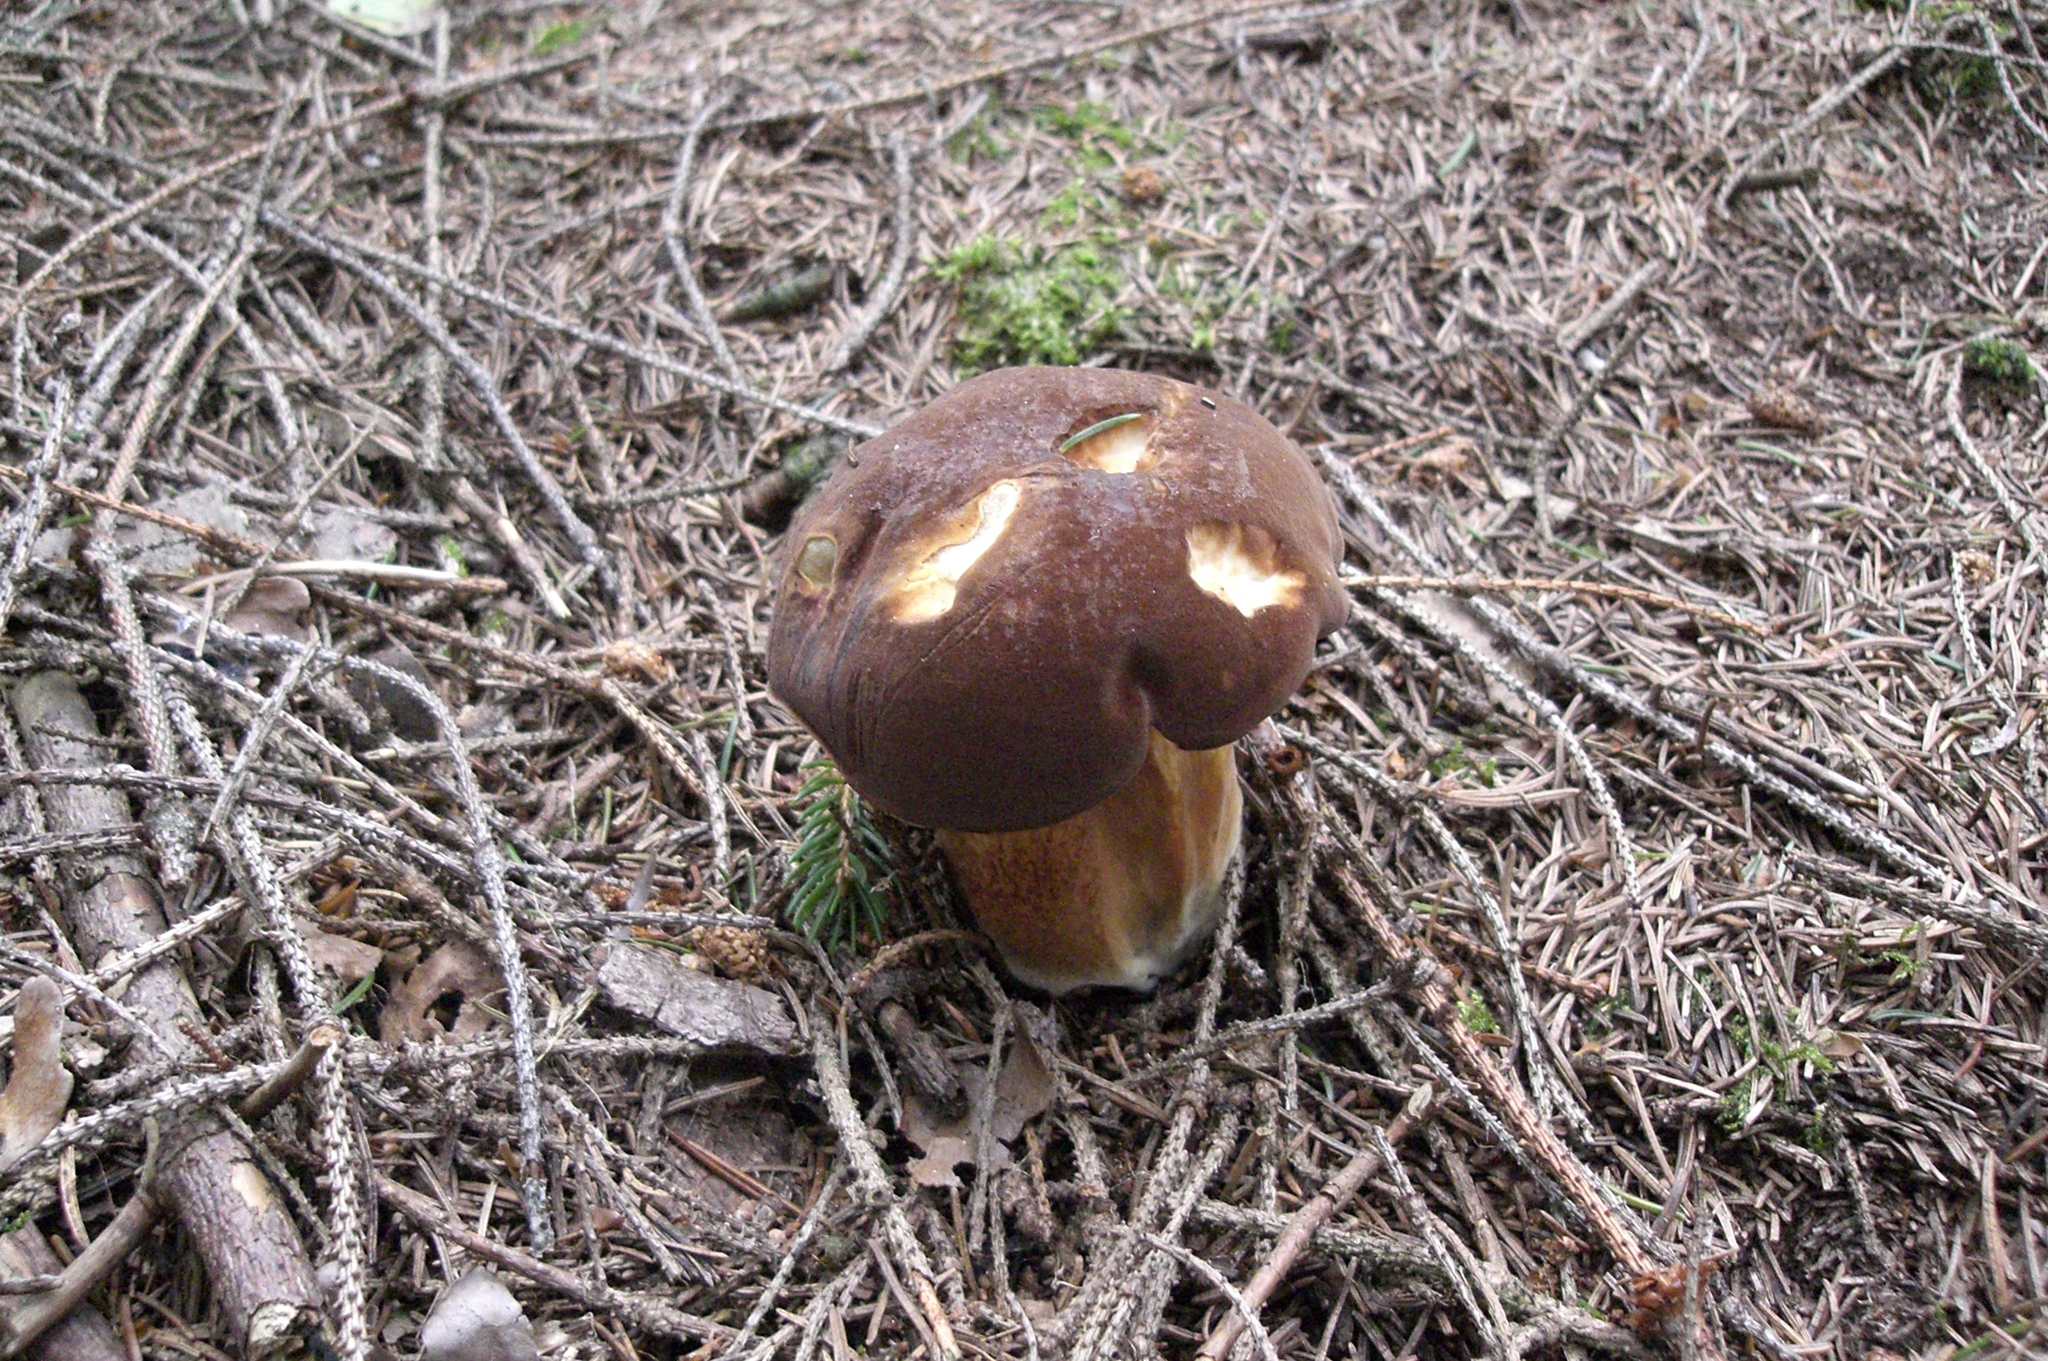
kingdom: Fungi
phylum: Basidiomycota
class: Agaricomycetes
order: Boletales
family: Boletaceae
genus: Imleria
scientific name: Imleria badia
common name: Bay bolete
